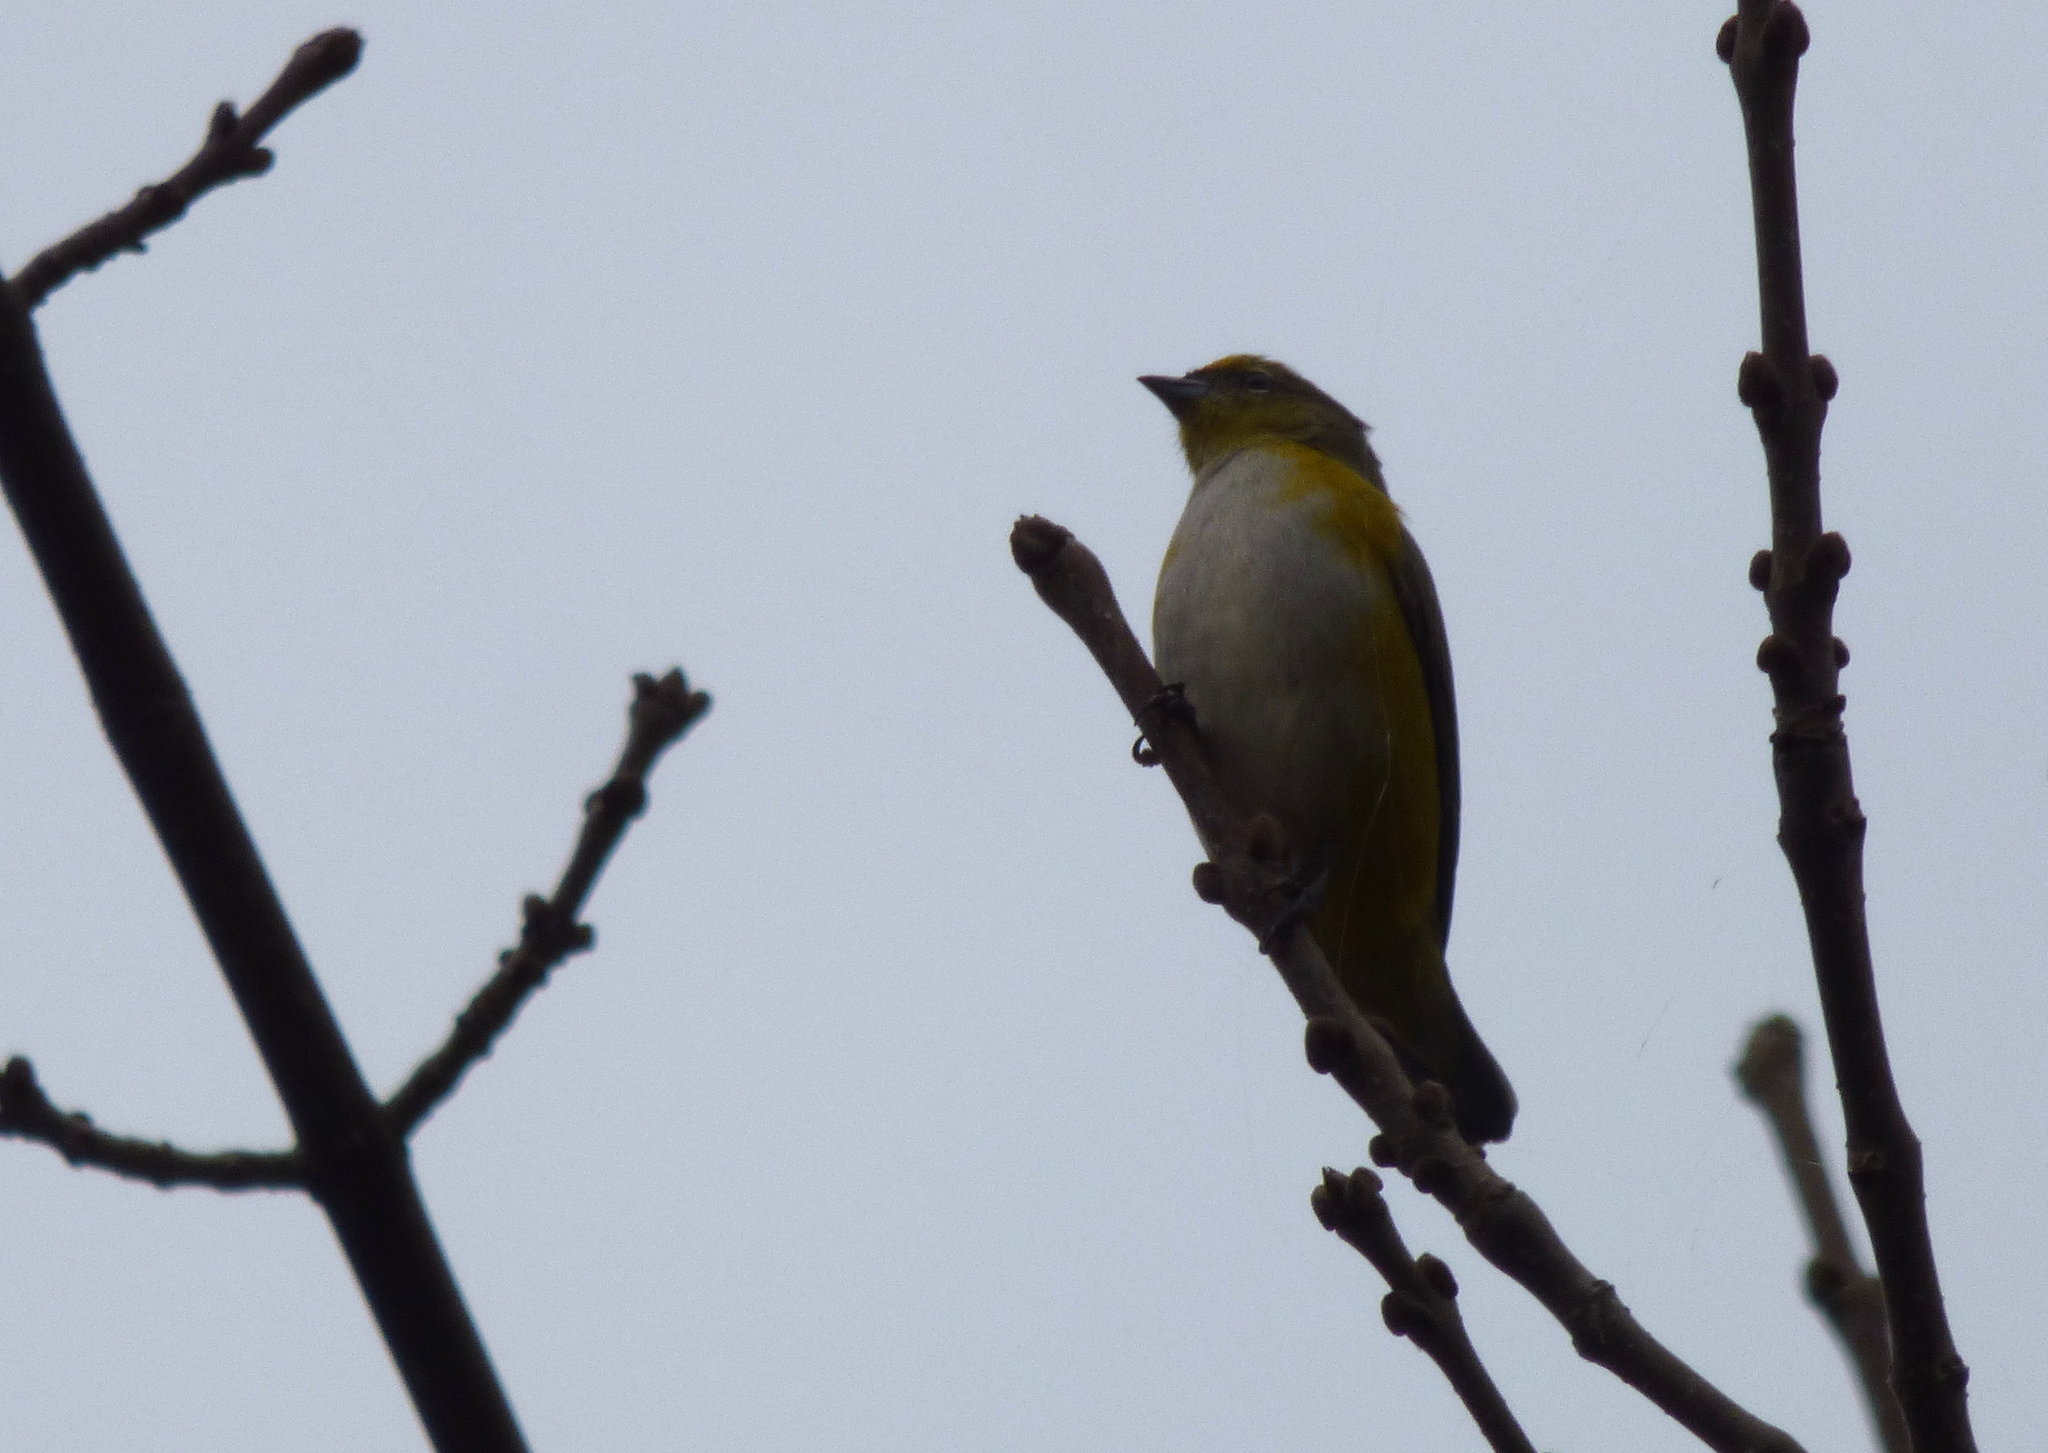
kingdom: Animalia
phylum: Chordata
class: Aves
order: Passeriformes
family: Fringillidae
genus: Euphonia
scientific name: Euphonia chlorotica
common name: Purple-throated euphonia
